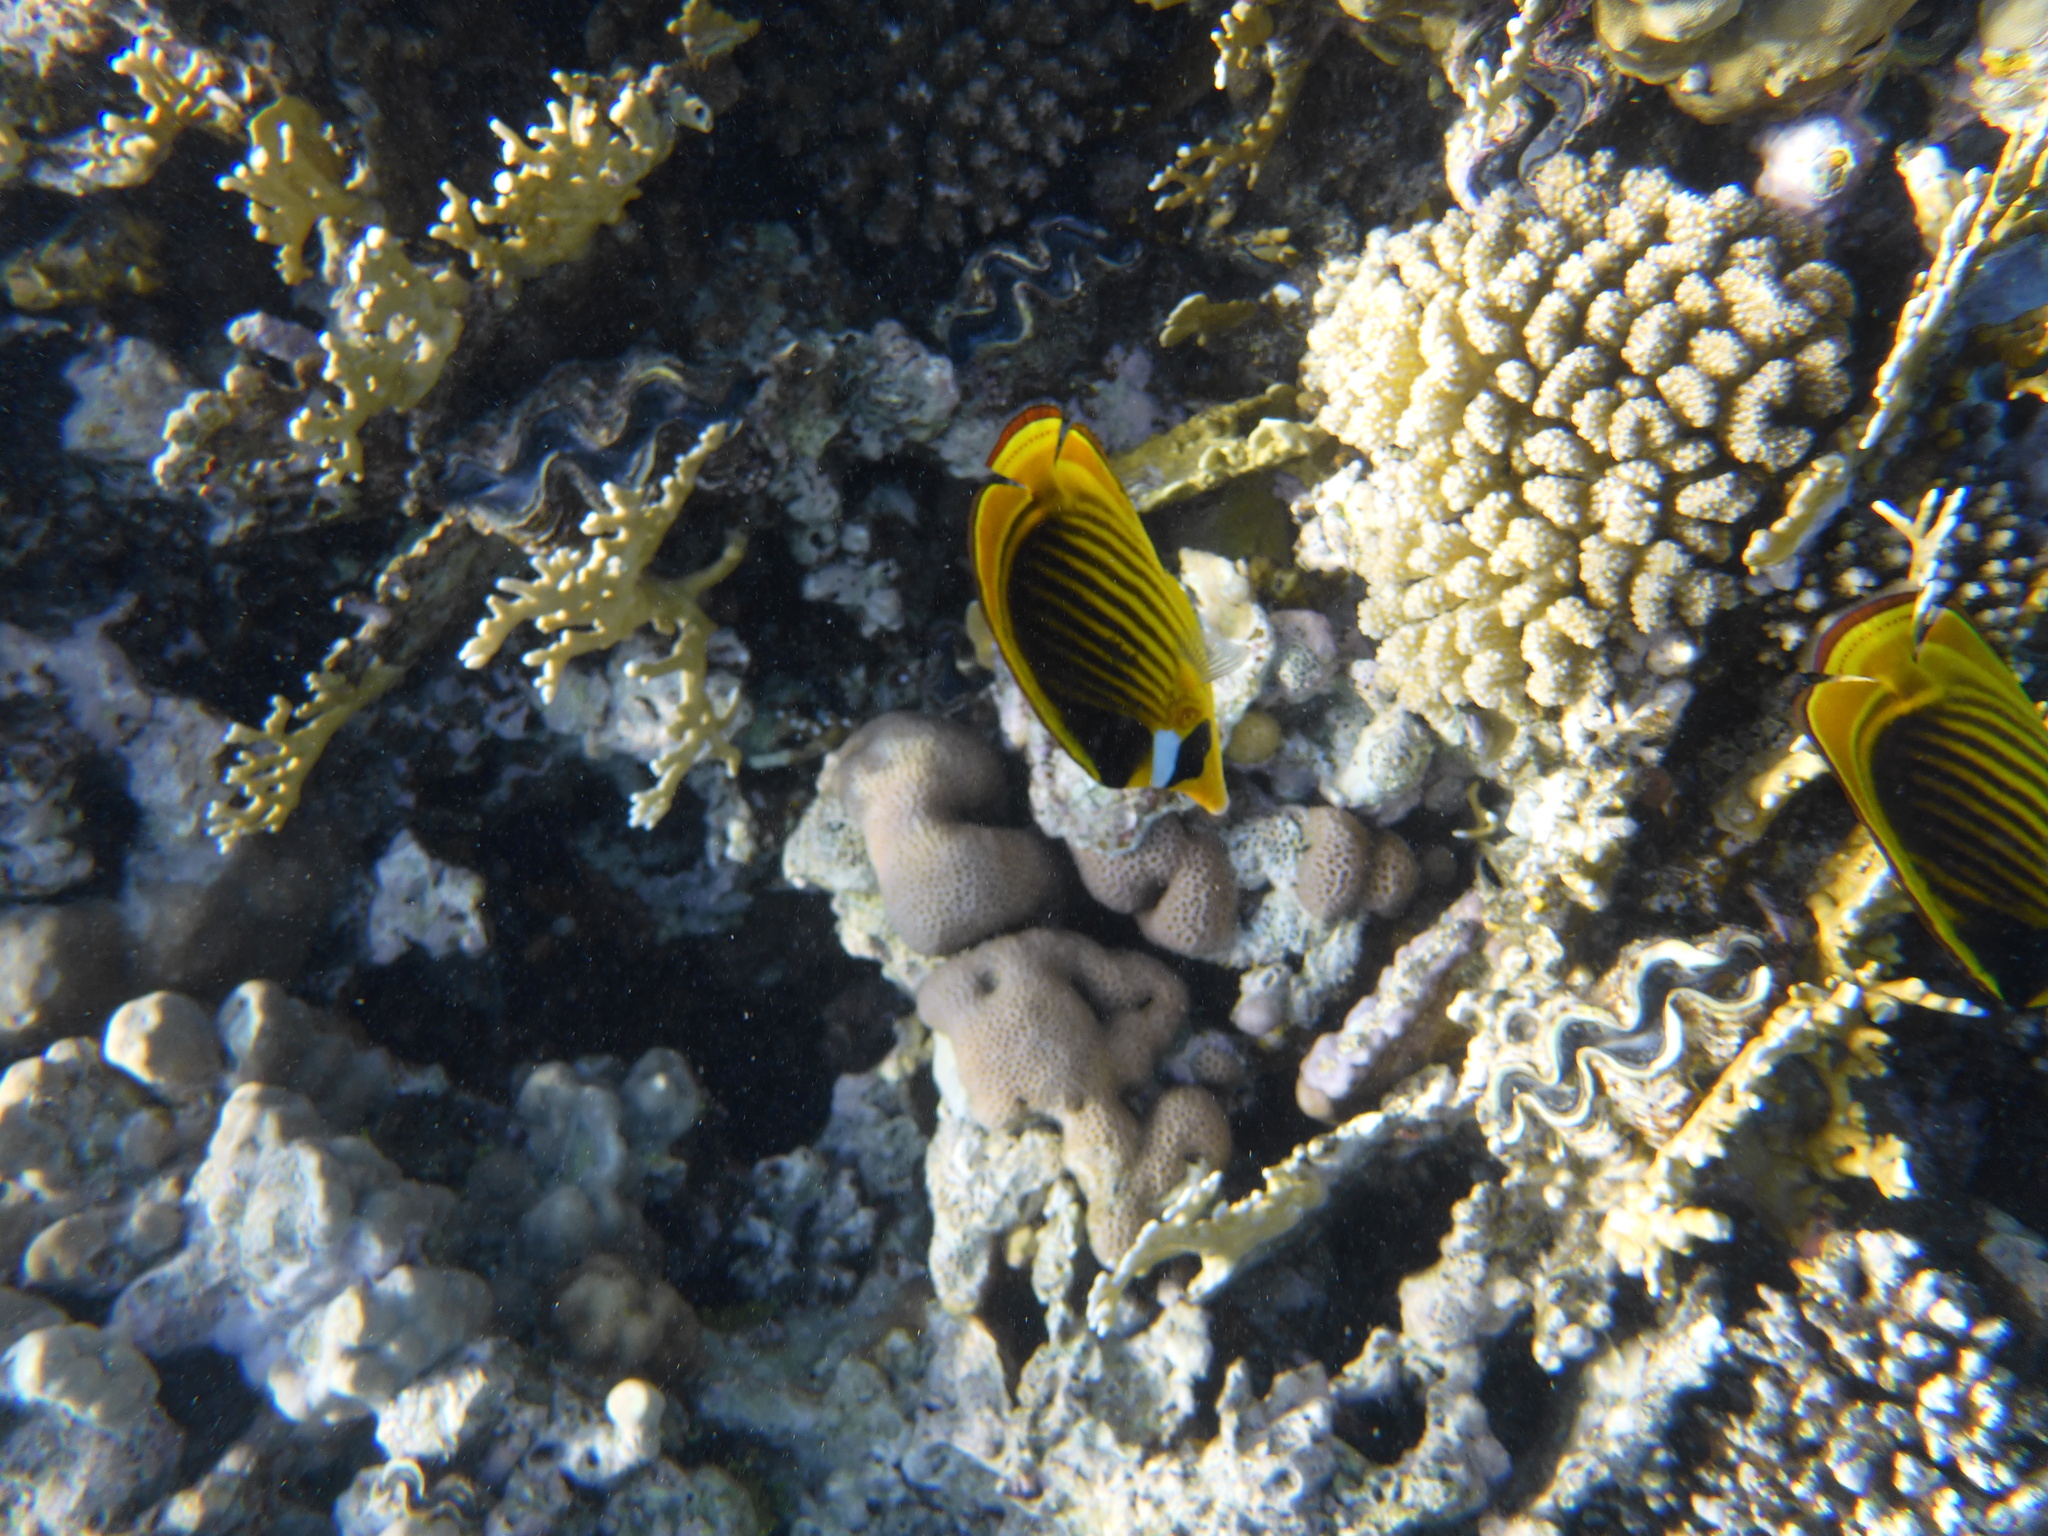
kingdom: Animalia
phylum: Chordata
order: Perciformes
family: Chaetodontidae
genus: Chaetodon
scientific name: Chaetodon fasciatus
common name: Diagonal butterflyfish
